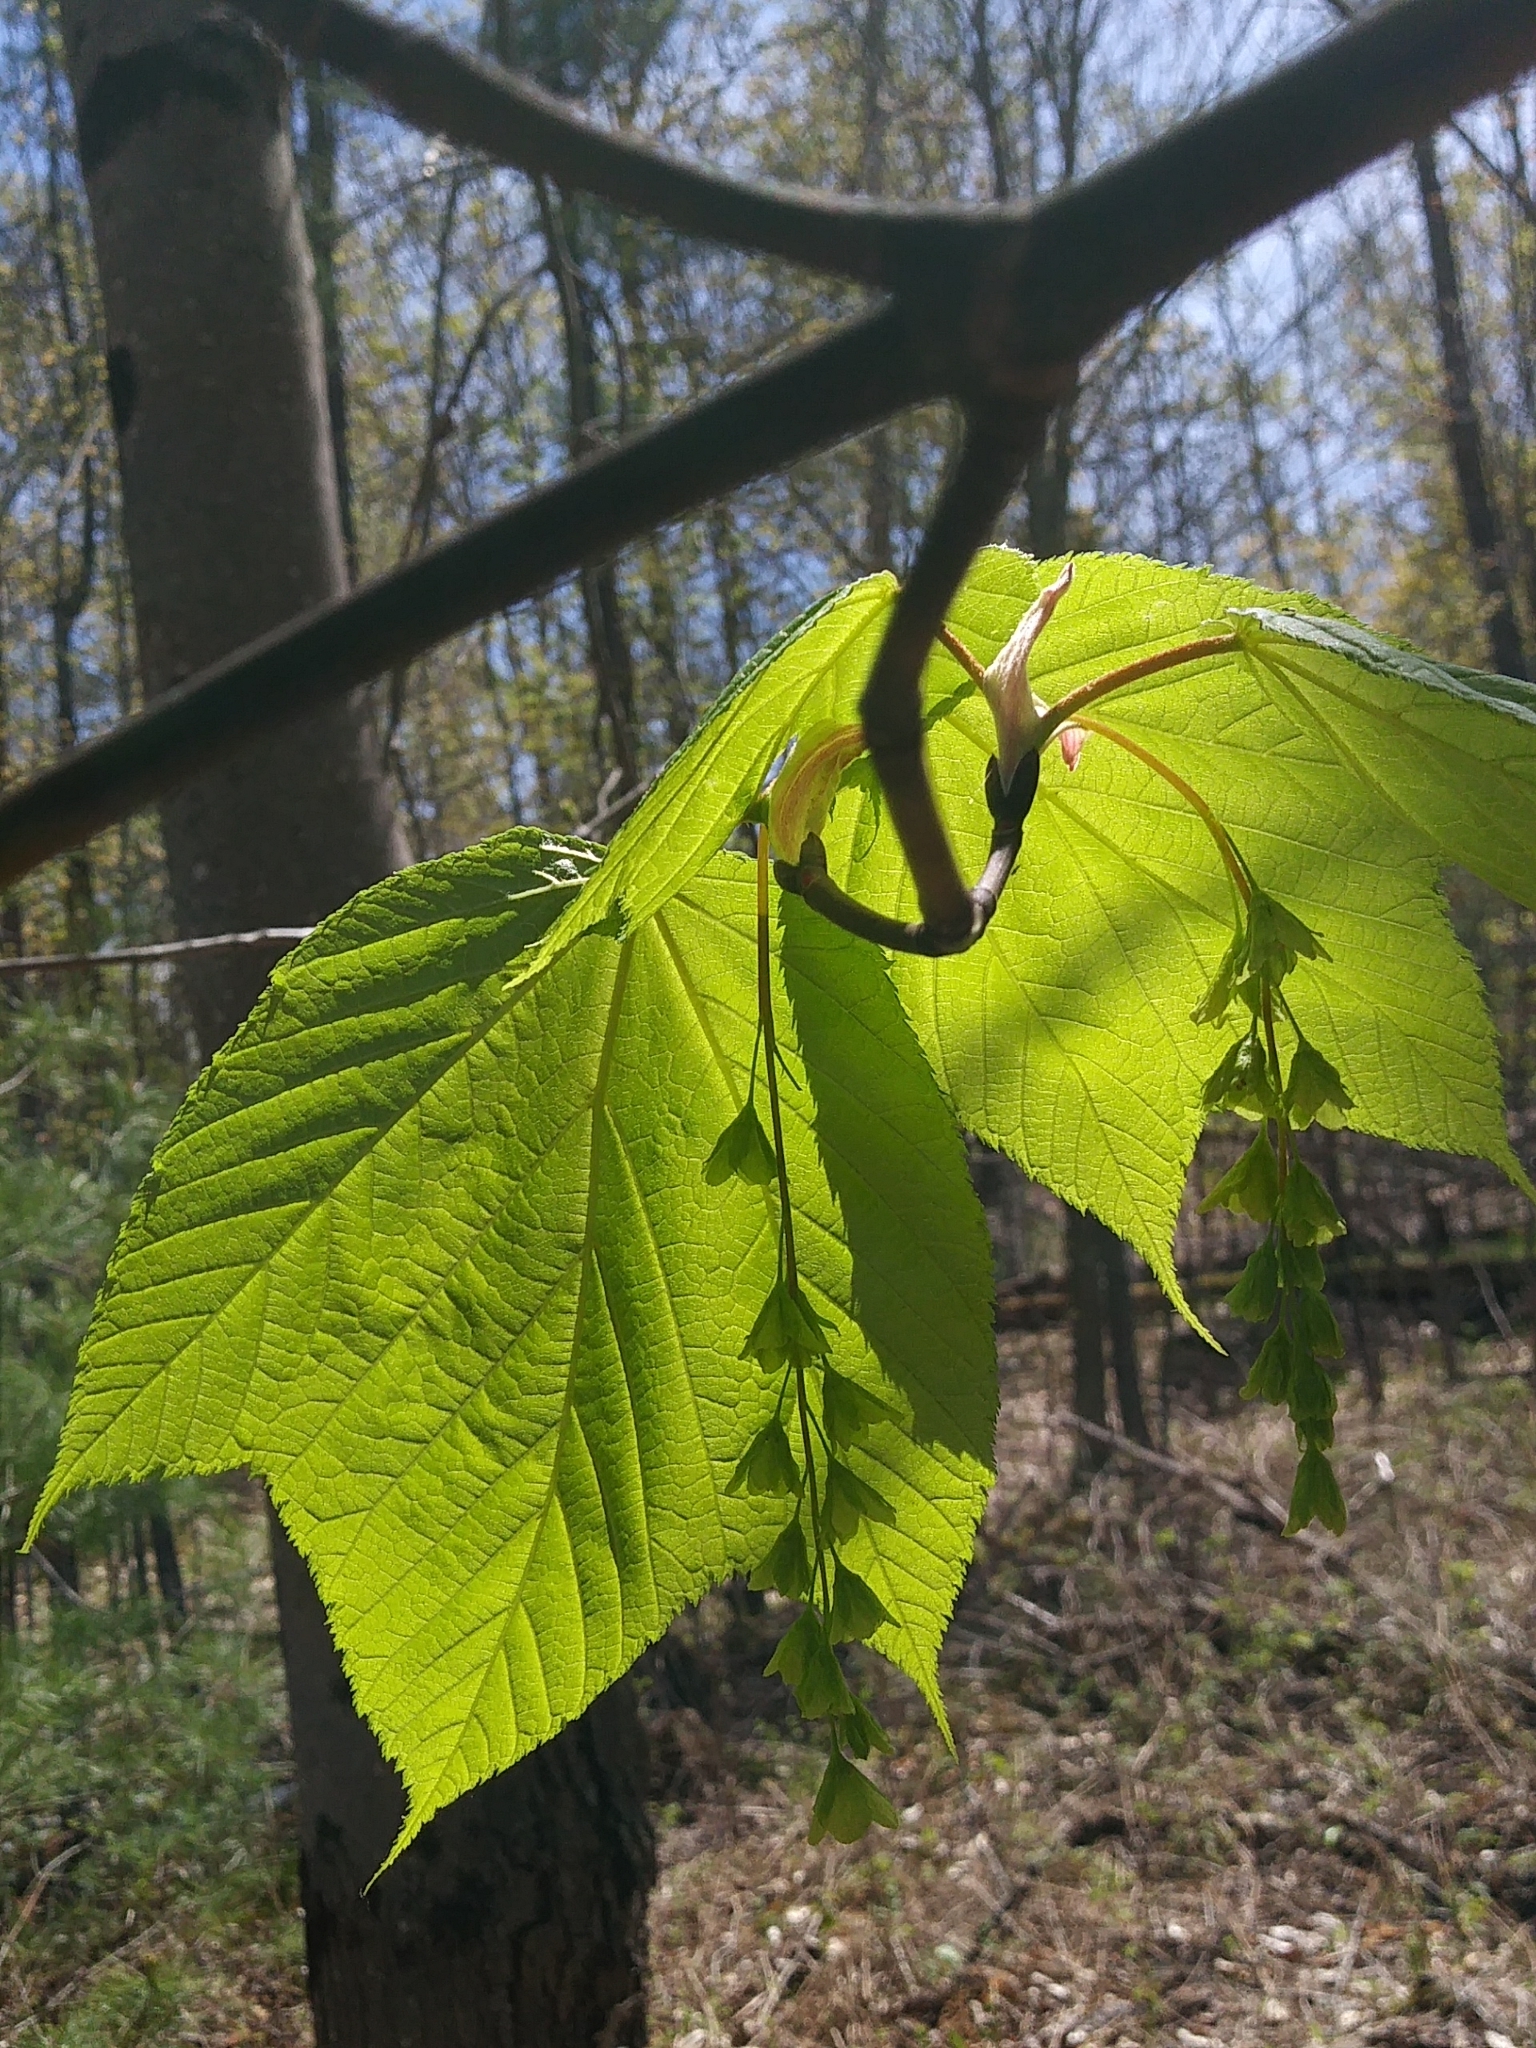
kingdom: Plantae
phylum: Tracheophyta
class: Magnoliopsida
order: Sapindales
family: Sapindaceae
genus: Acer
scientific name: Acer pensylvanicum
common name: Moosewood
